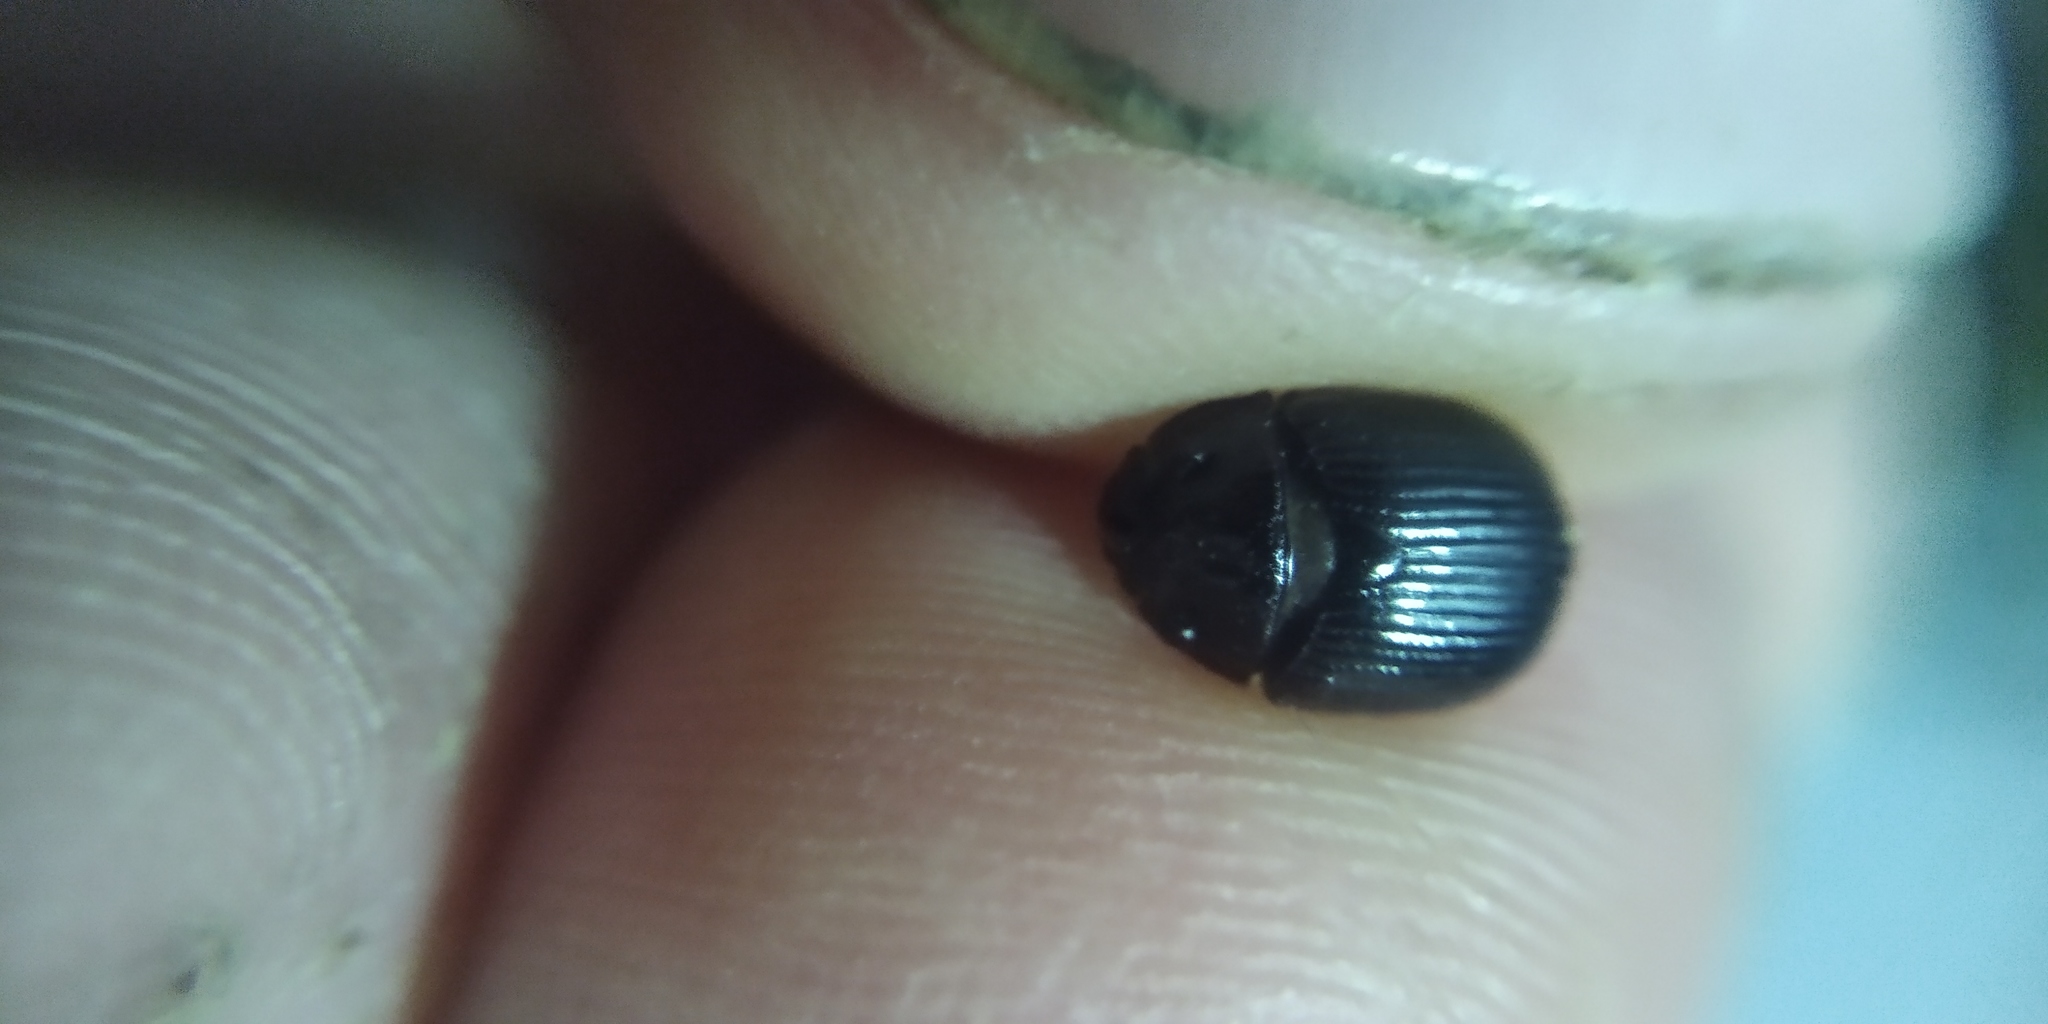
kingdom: Animalia
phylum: Arthropoda
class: Insecta
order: Coleoptera
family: Geotrupidae
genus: Odonteus
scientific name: Odonteus armiger
